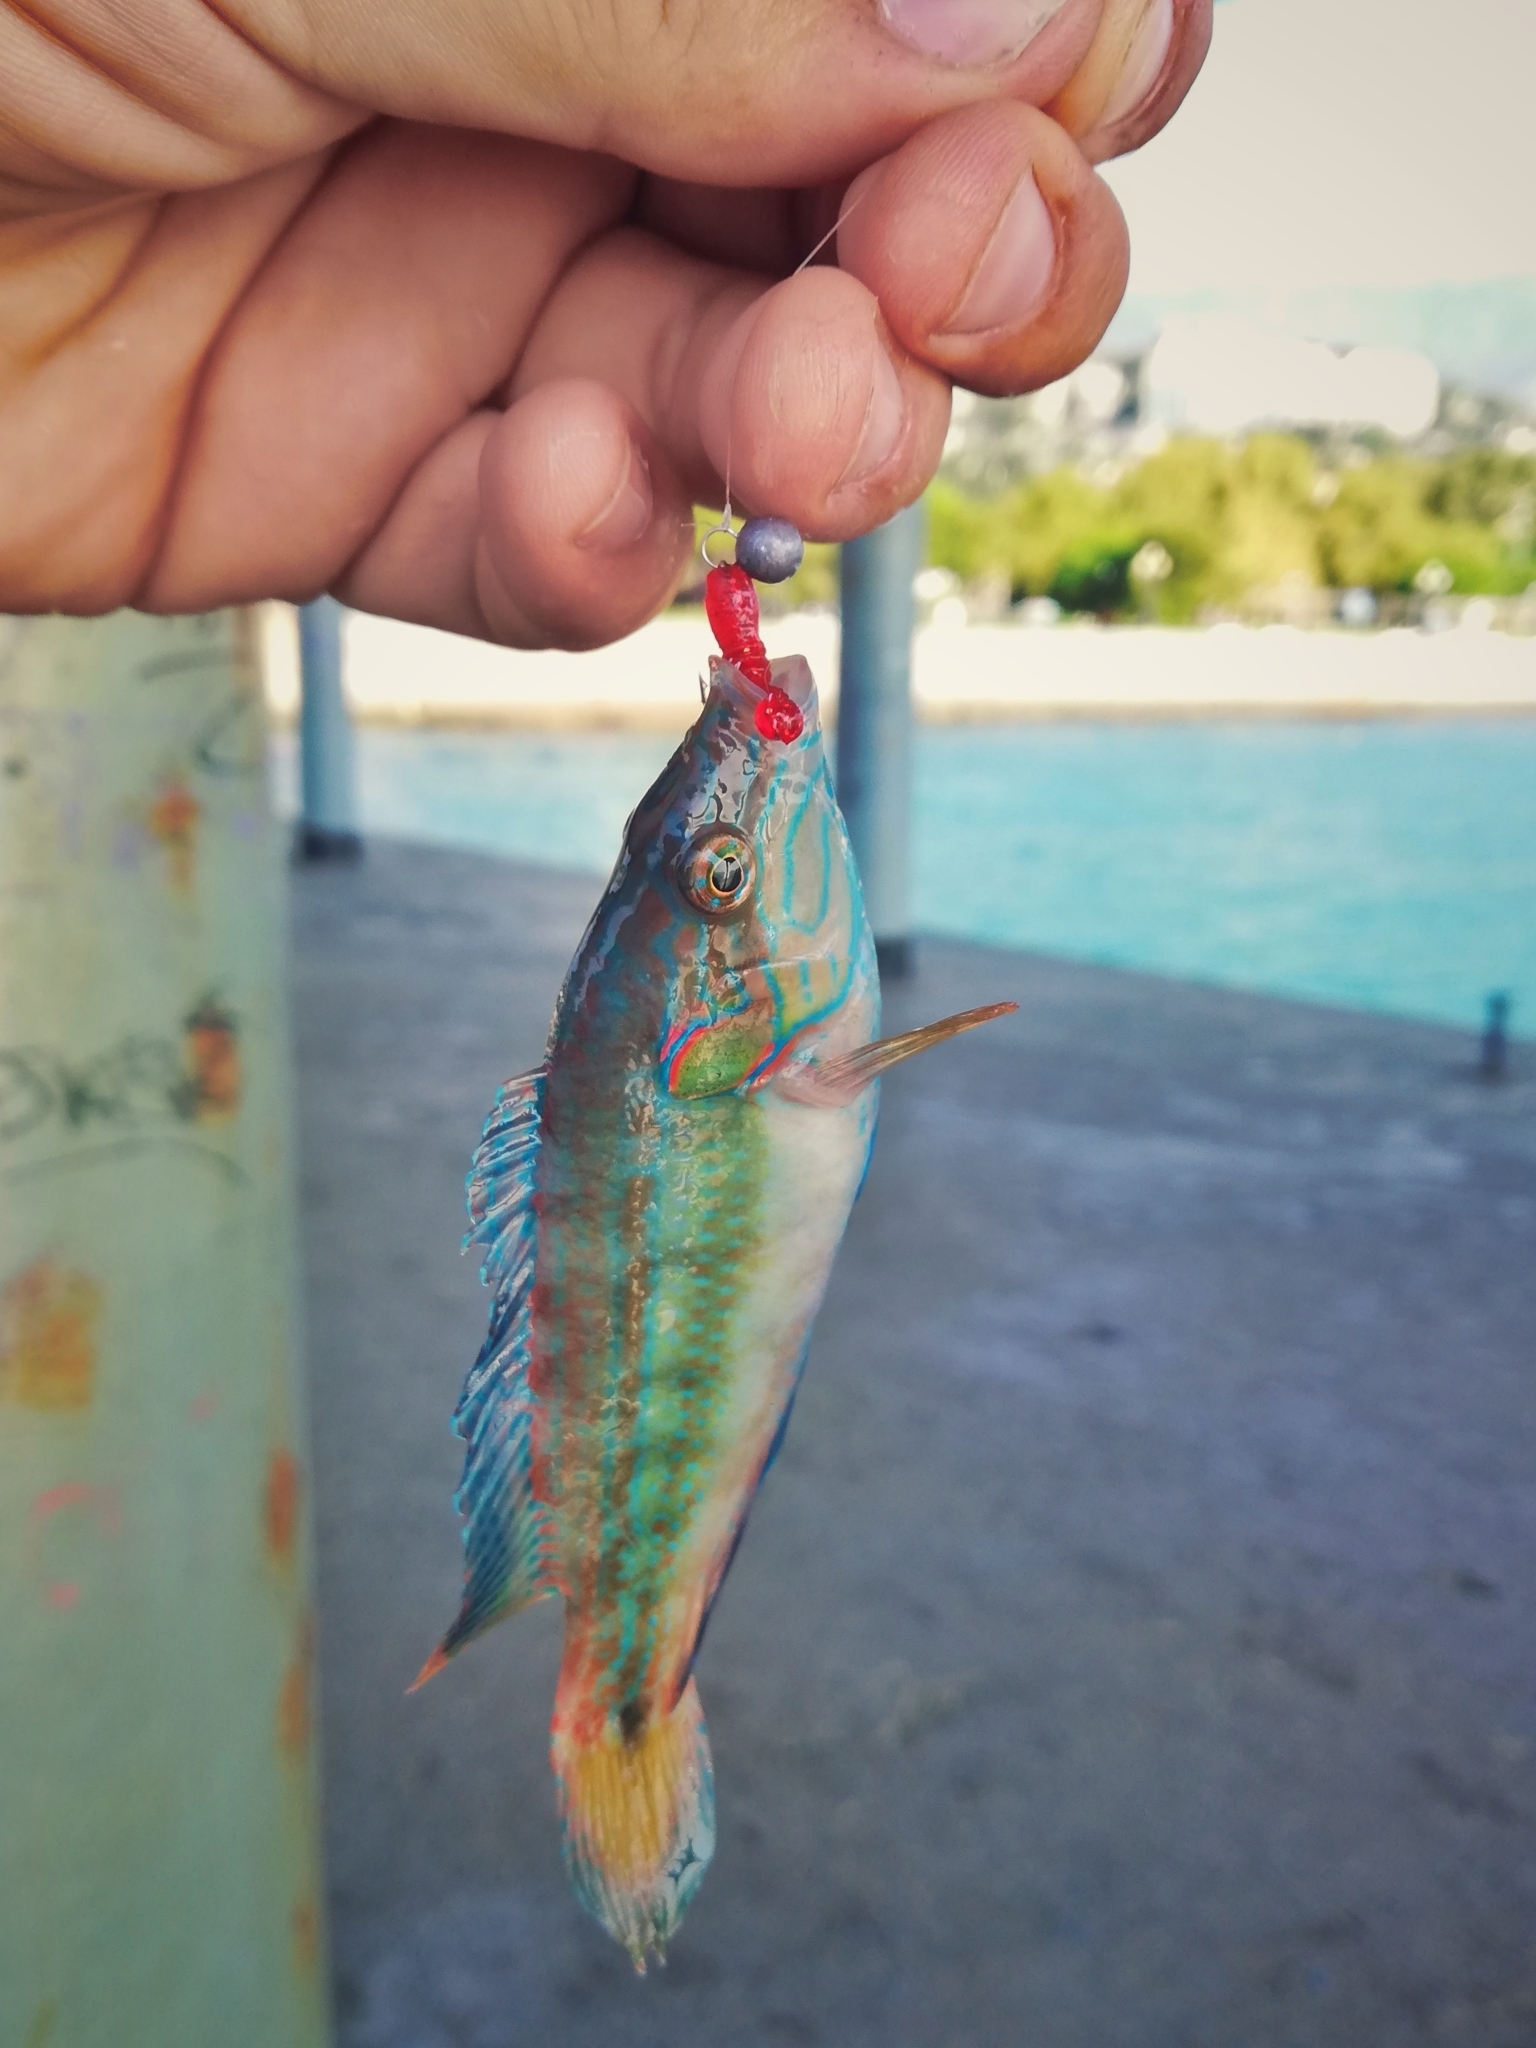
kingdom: Animalia
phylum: Chordata
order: Perciformes
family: Labridae
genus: Symphodus
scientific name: Symphodus ocellatus
